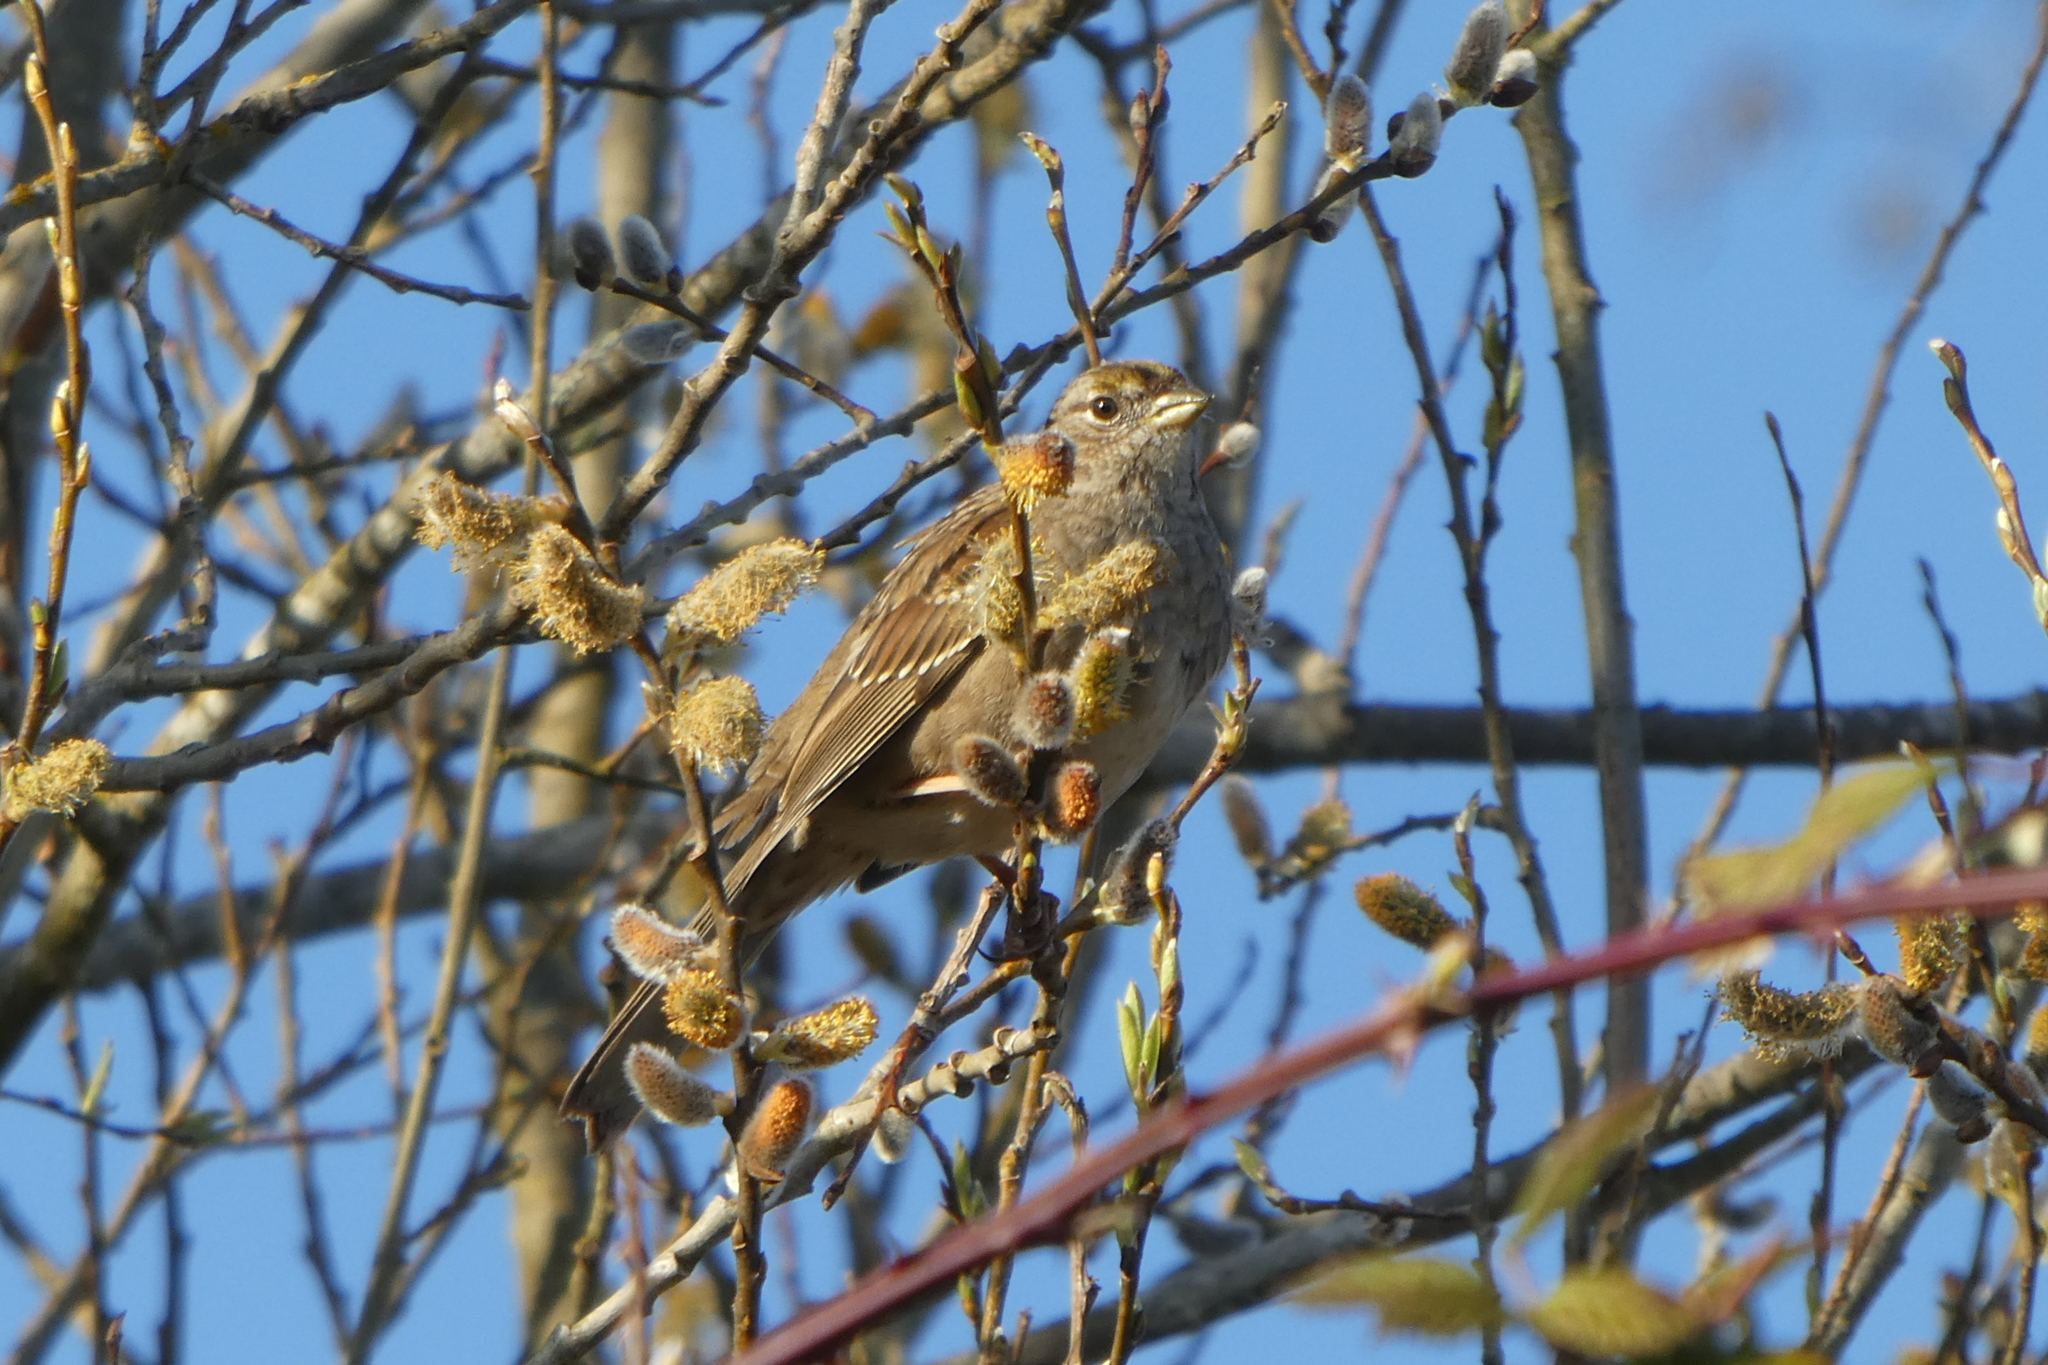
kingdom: Animalia
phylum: Chordata
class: Aves
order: Passeriformes
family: Passerellidae
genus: Zonotrichia
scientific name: Zonotrichia atricapilla
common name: Golden-crowned sparrow
